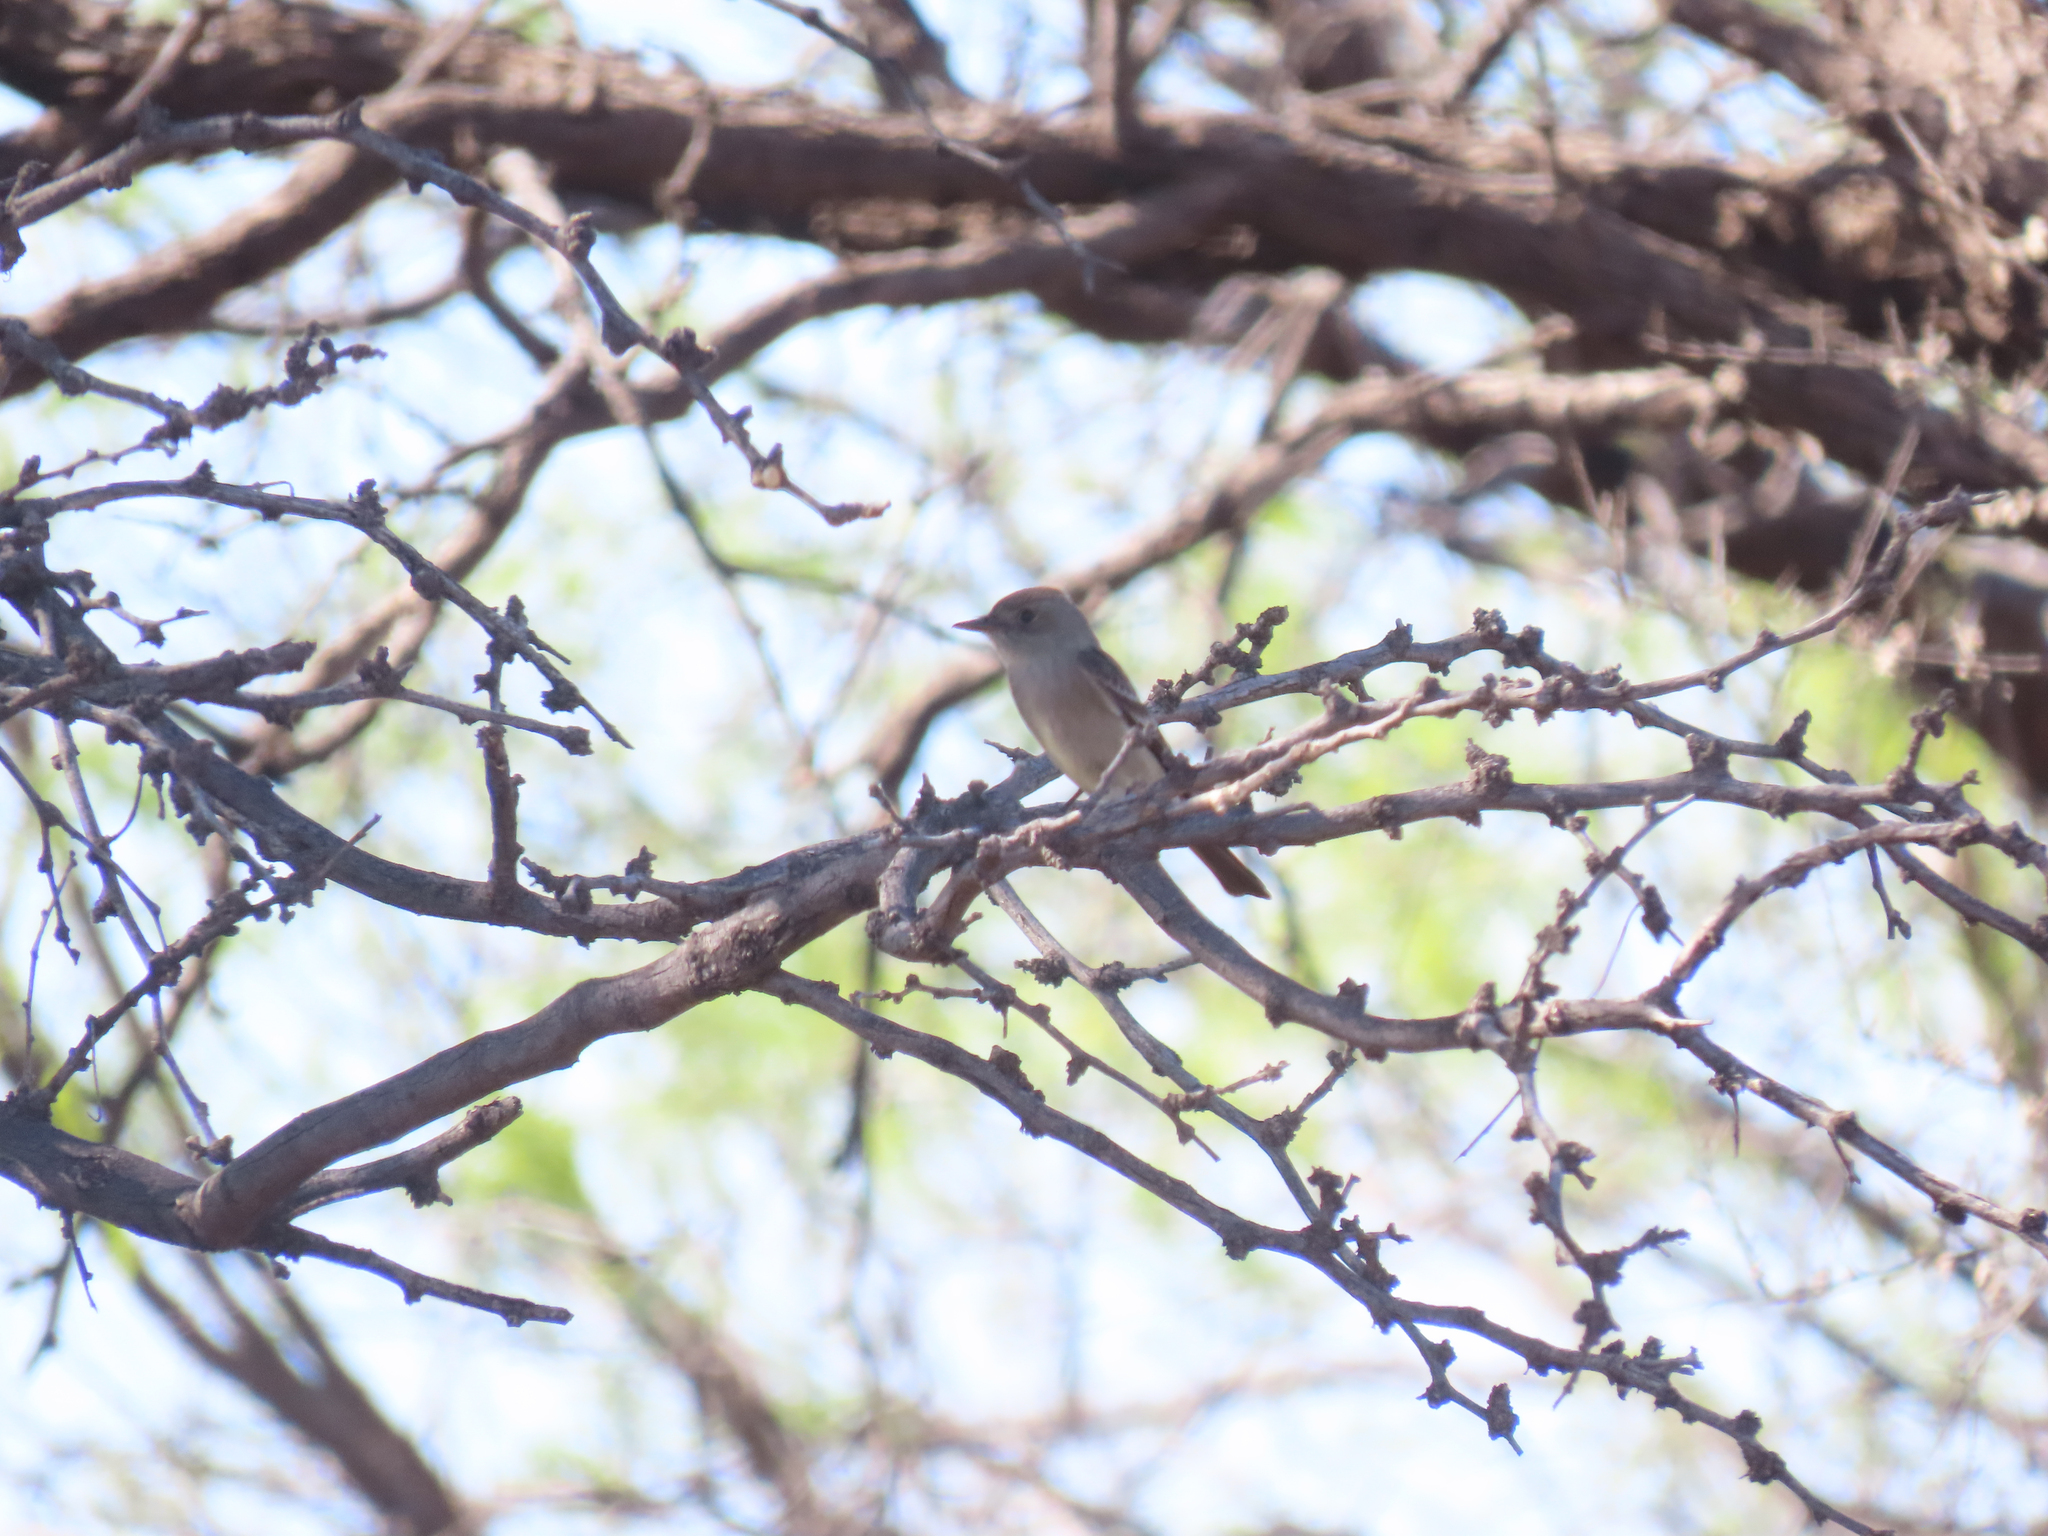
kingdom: Animalia
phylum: Chordata
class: Aves
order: Passeriformes
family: Tyrannidae
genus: Contopus
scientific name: Contopus sordidulus
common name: Western wood-pewee
